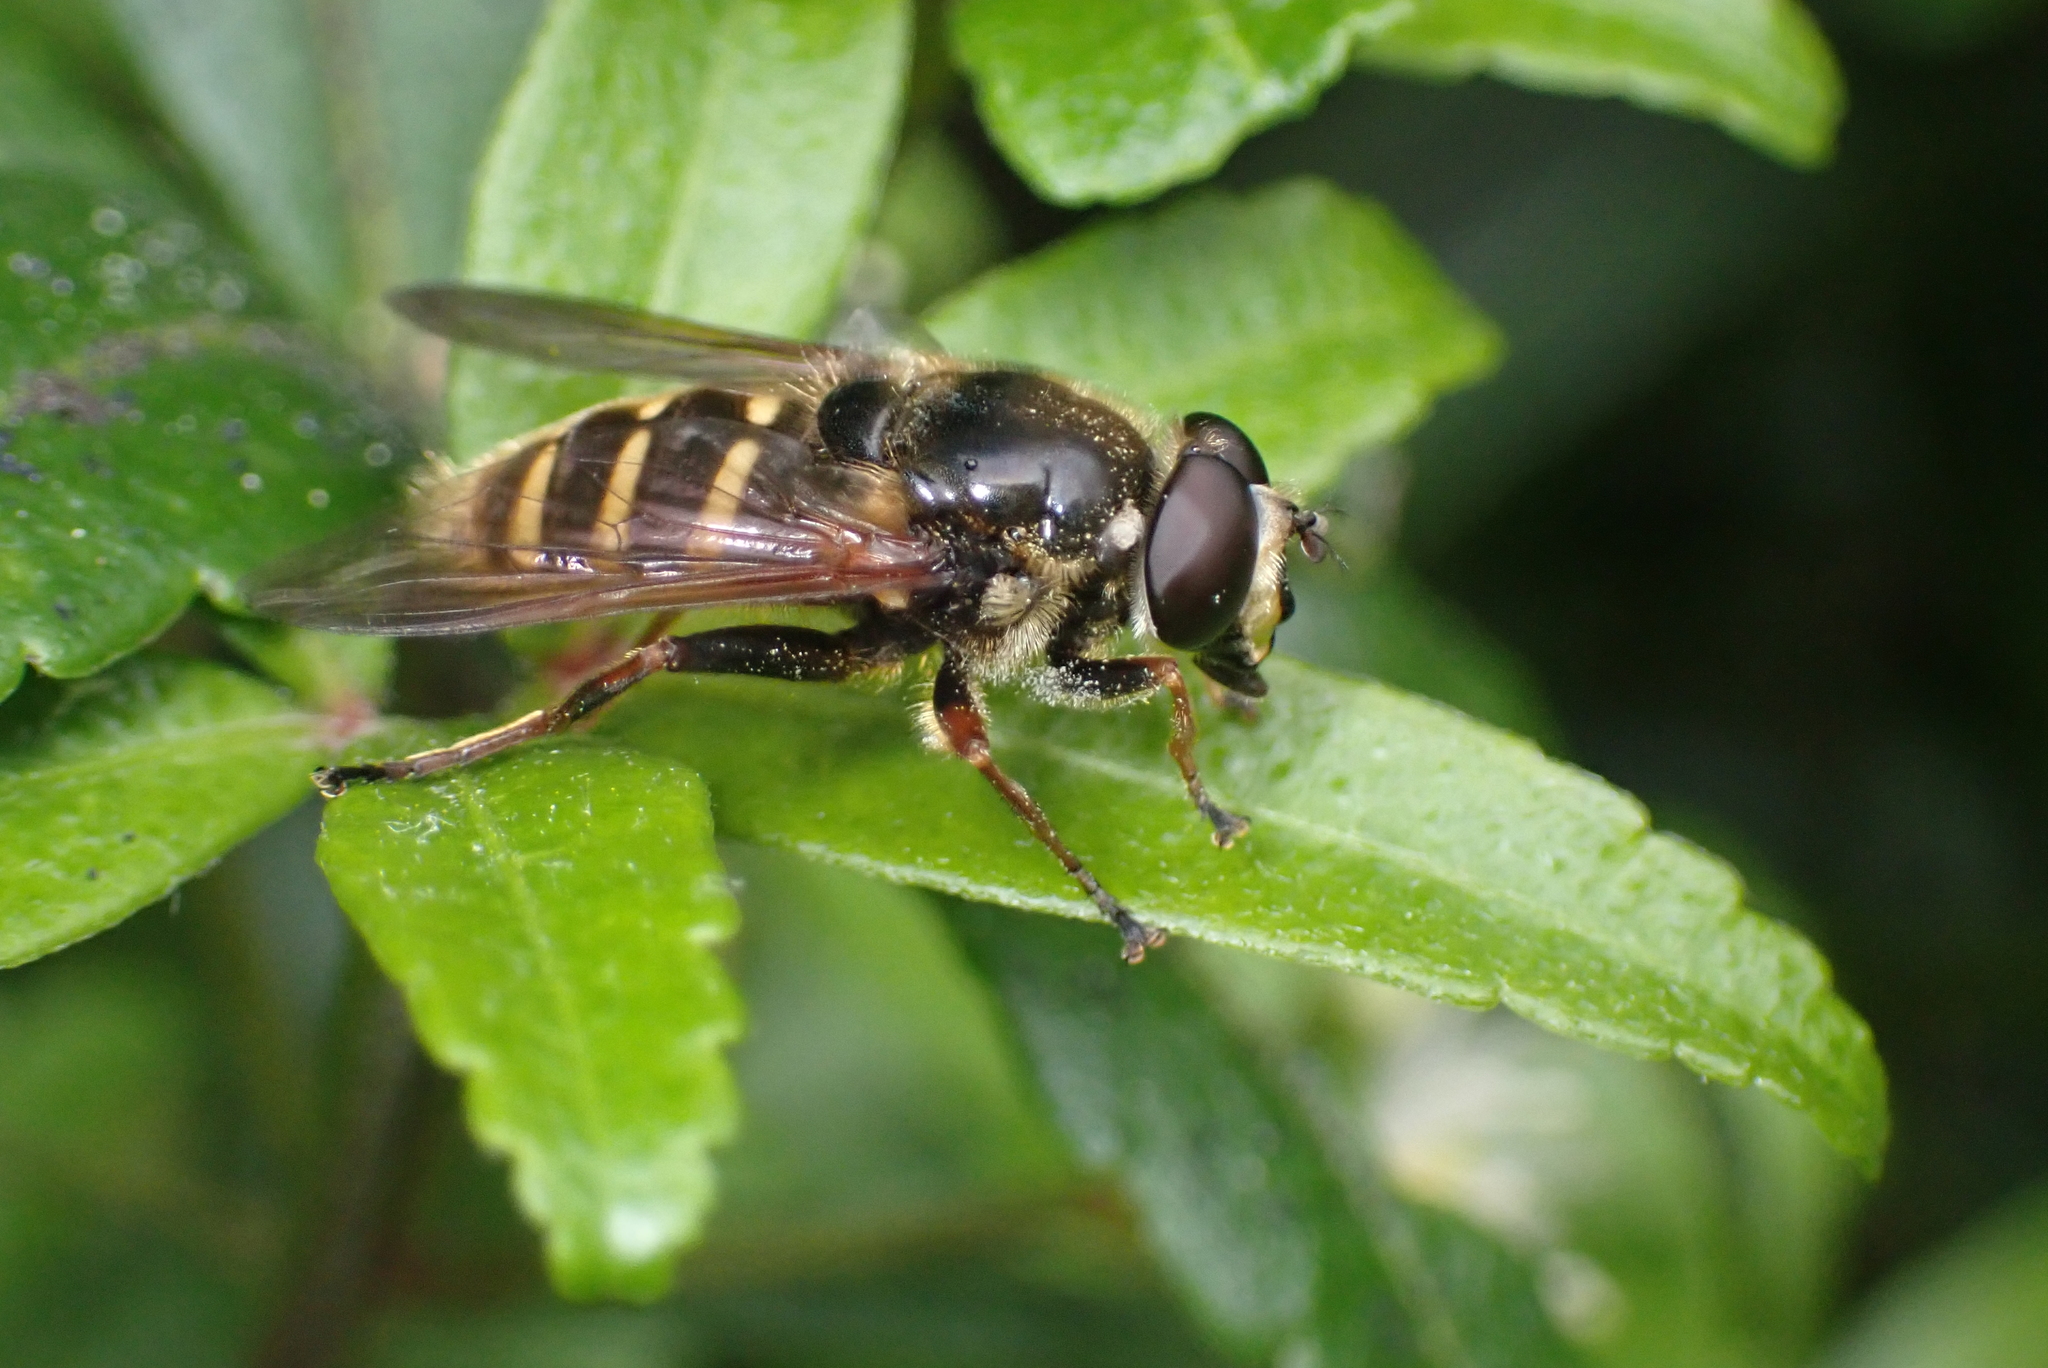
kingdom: Animalia
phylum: Arthropoda
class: Insecta
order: Diptera
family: Syrphidae
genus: Sericomyia
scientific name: Sericomyia silentis
